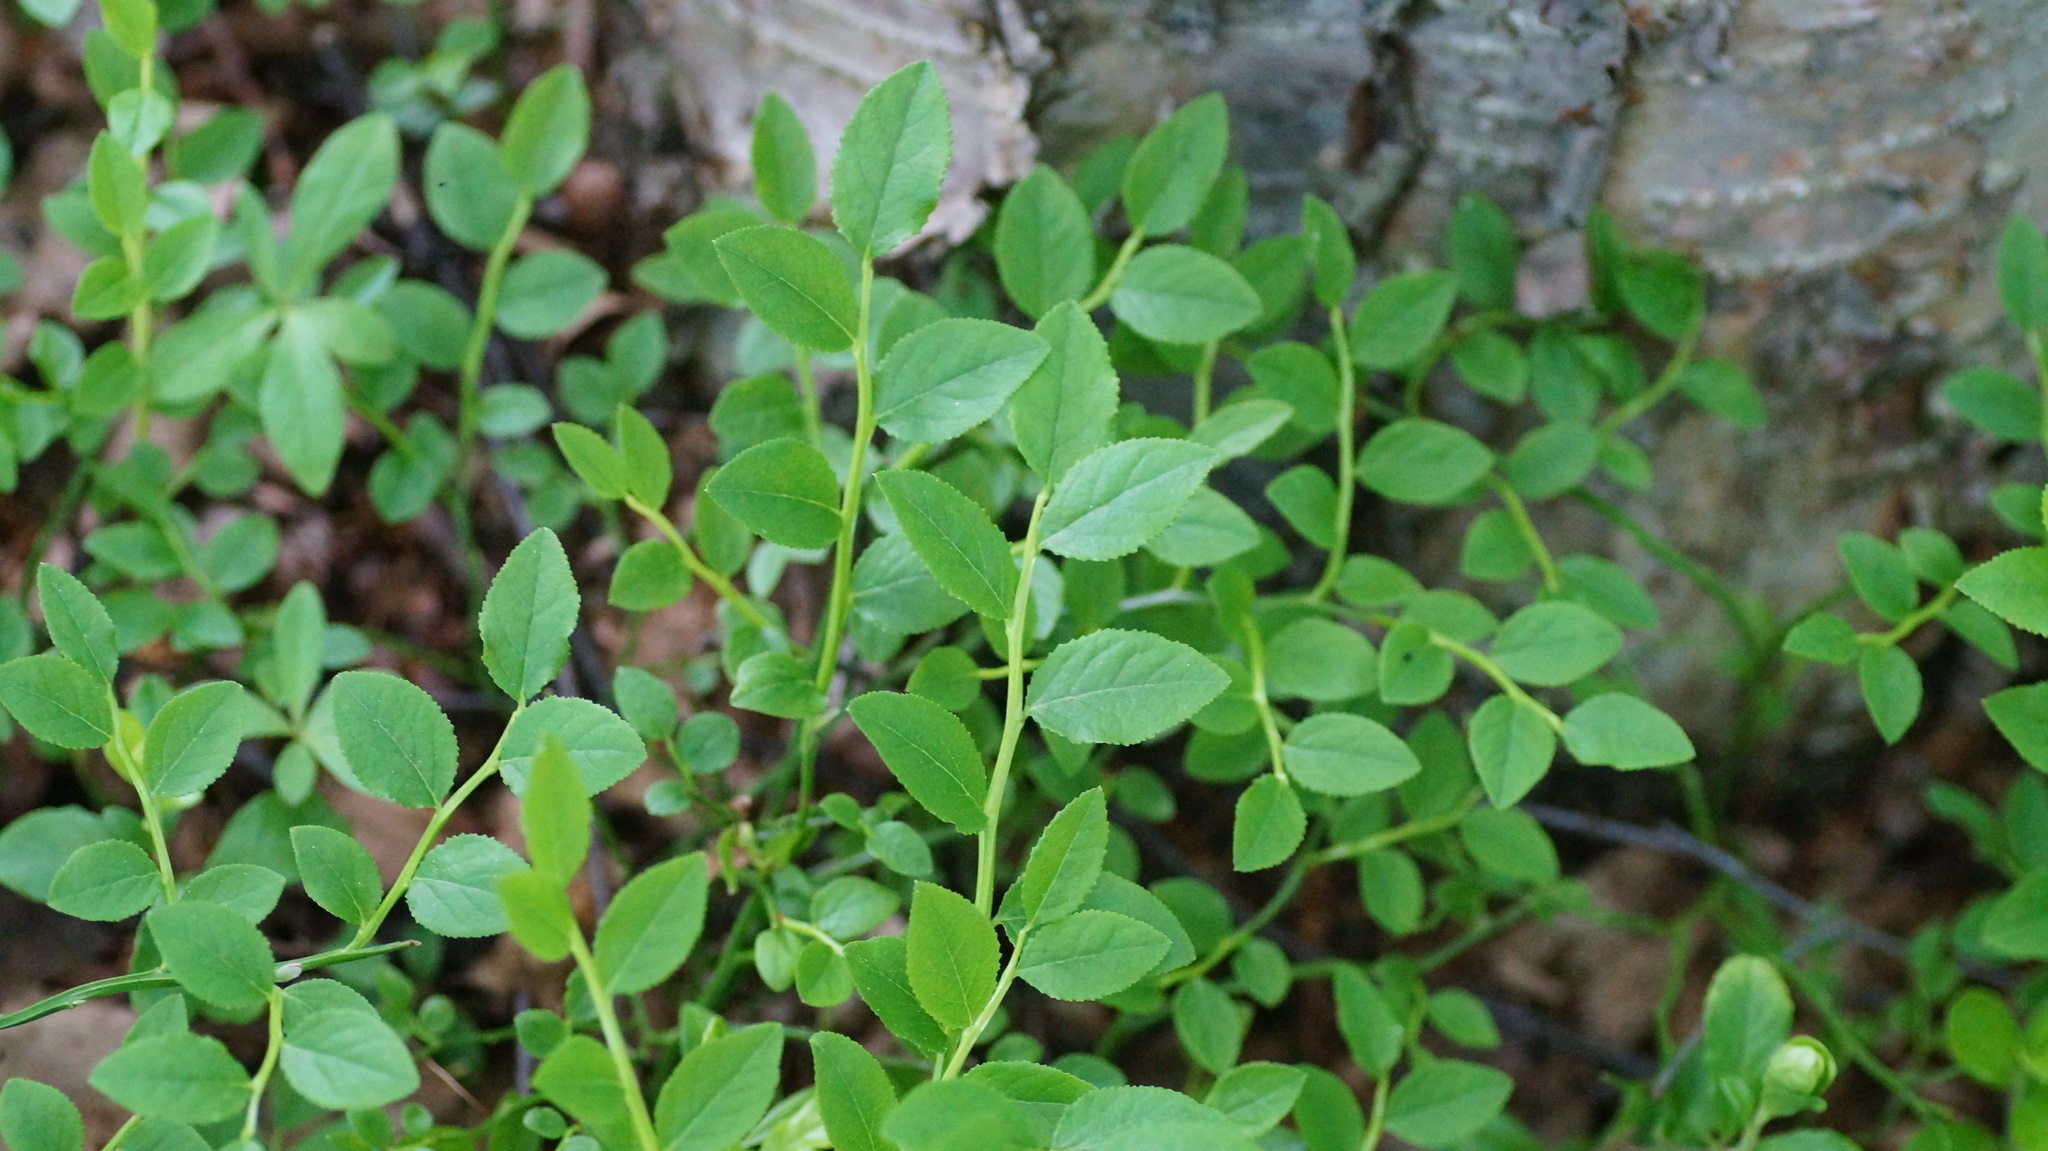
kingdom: Plantae
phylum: Tracheophyta
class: Magnoliopsida
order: Ericales
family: Ericaceae
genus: Vaccinium
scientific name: Vaccinium myrtillus
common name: Bilberry
